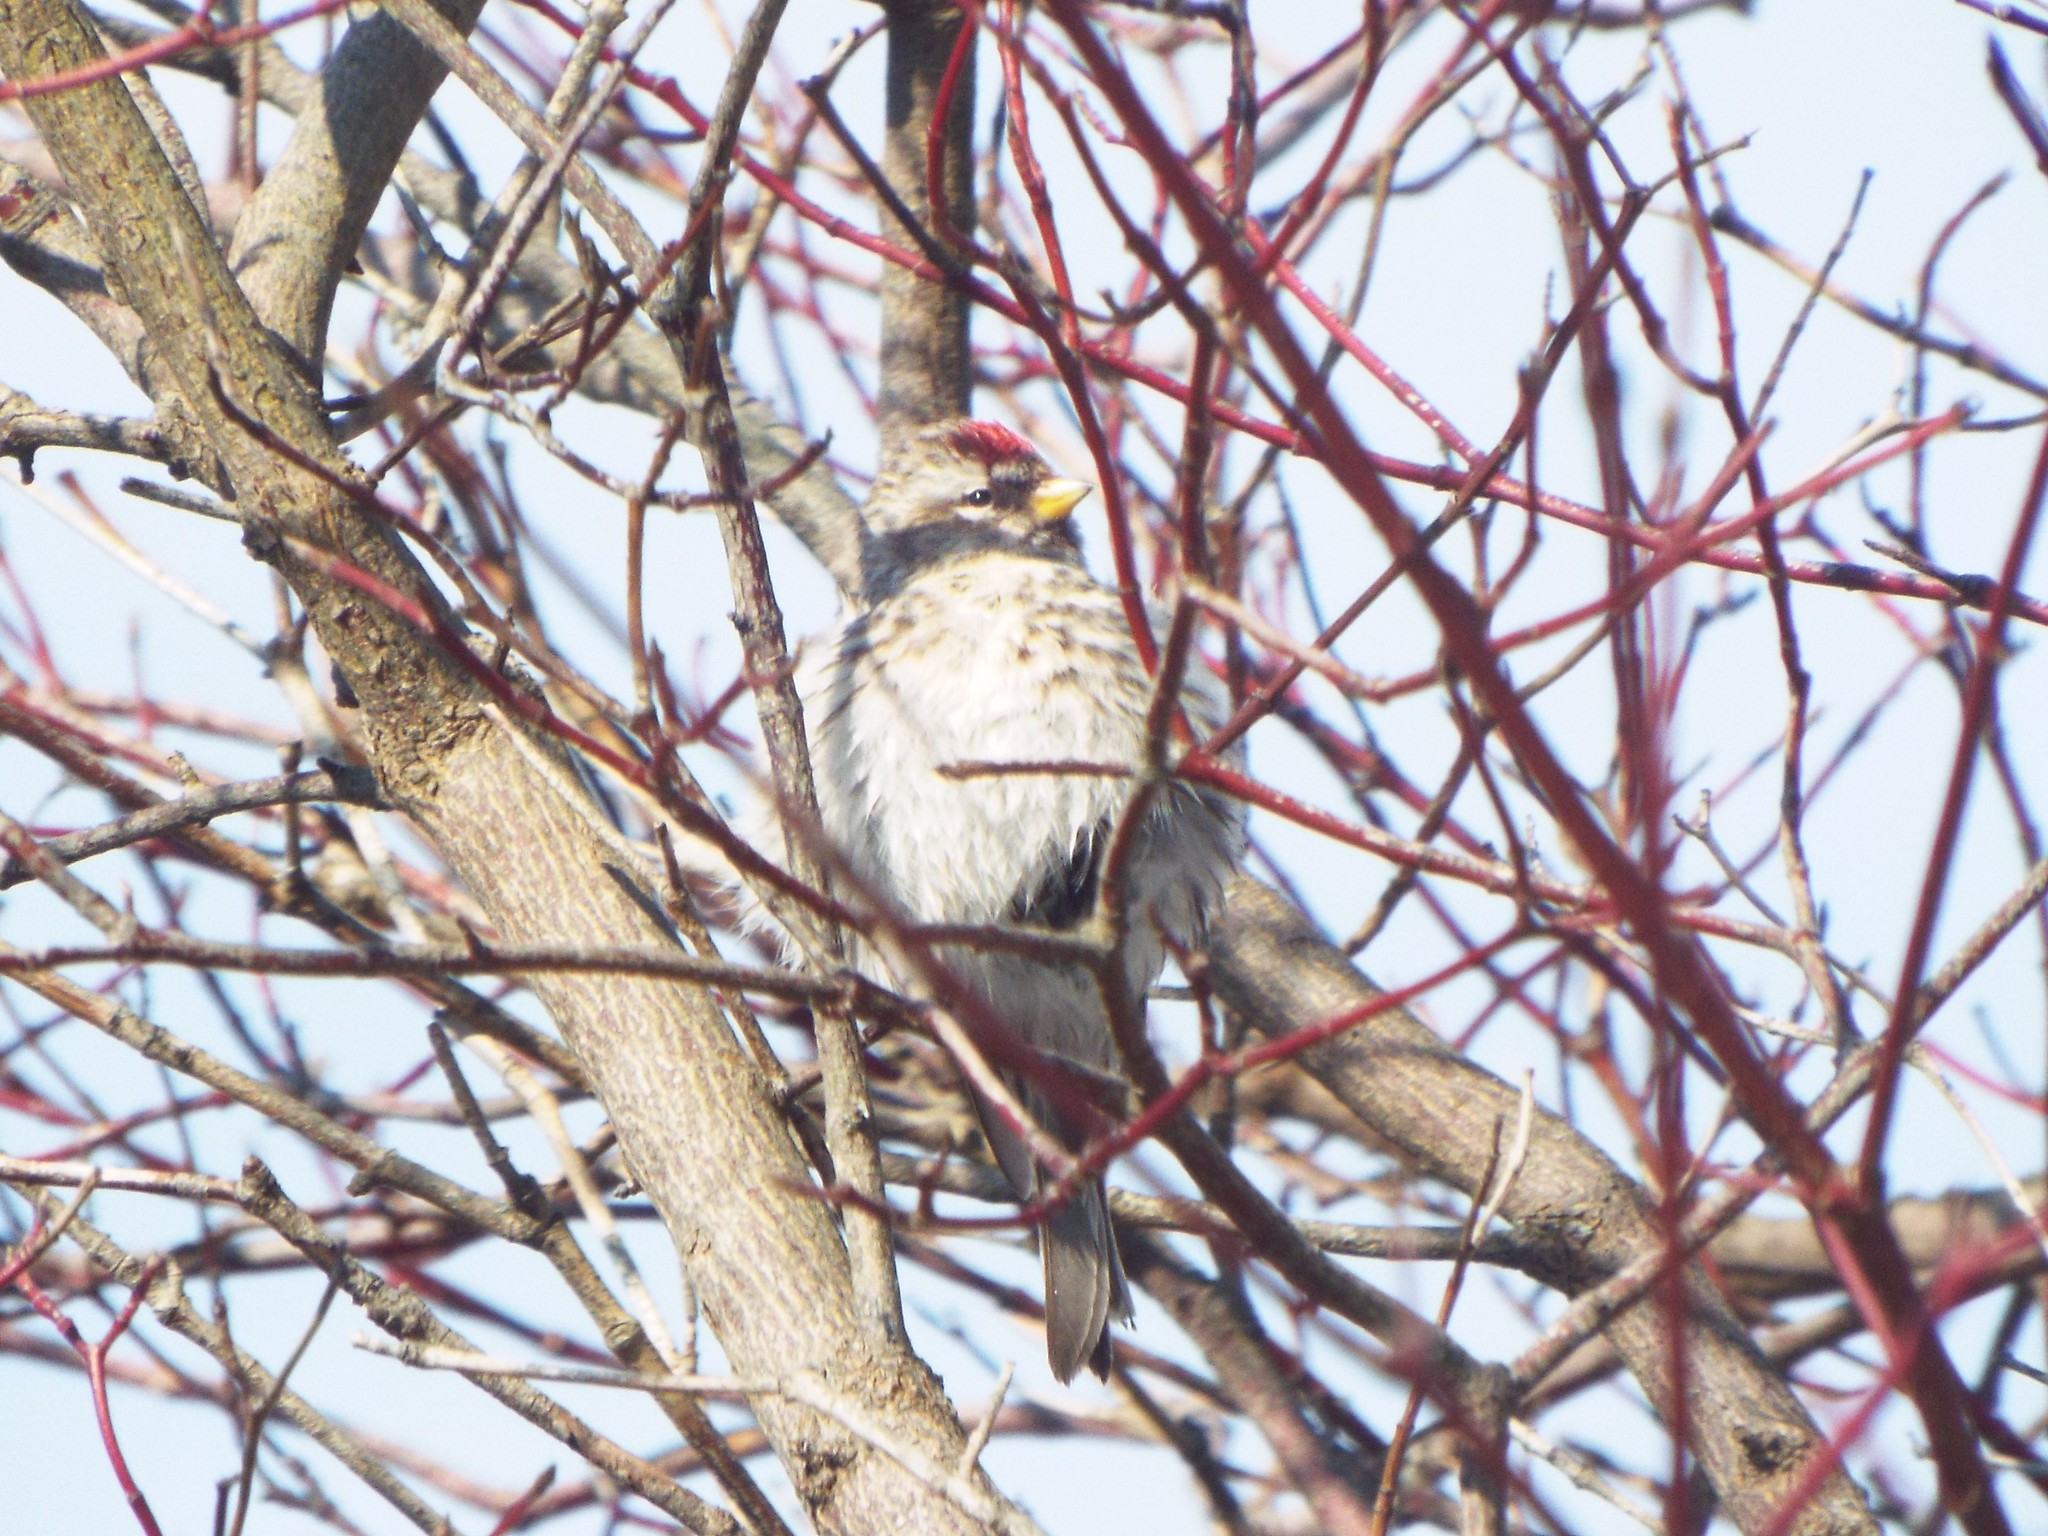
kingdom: Animalia
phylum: Chordata
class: Aves
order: Passeriformes
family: Fringillidae
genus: Acanthis
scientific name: Acanthis flammea
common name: Common redpoll
